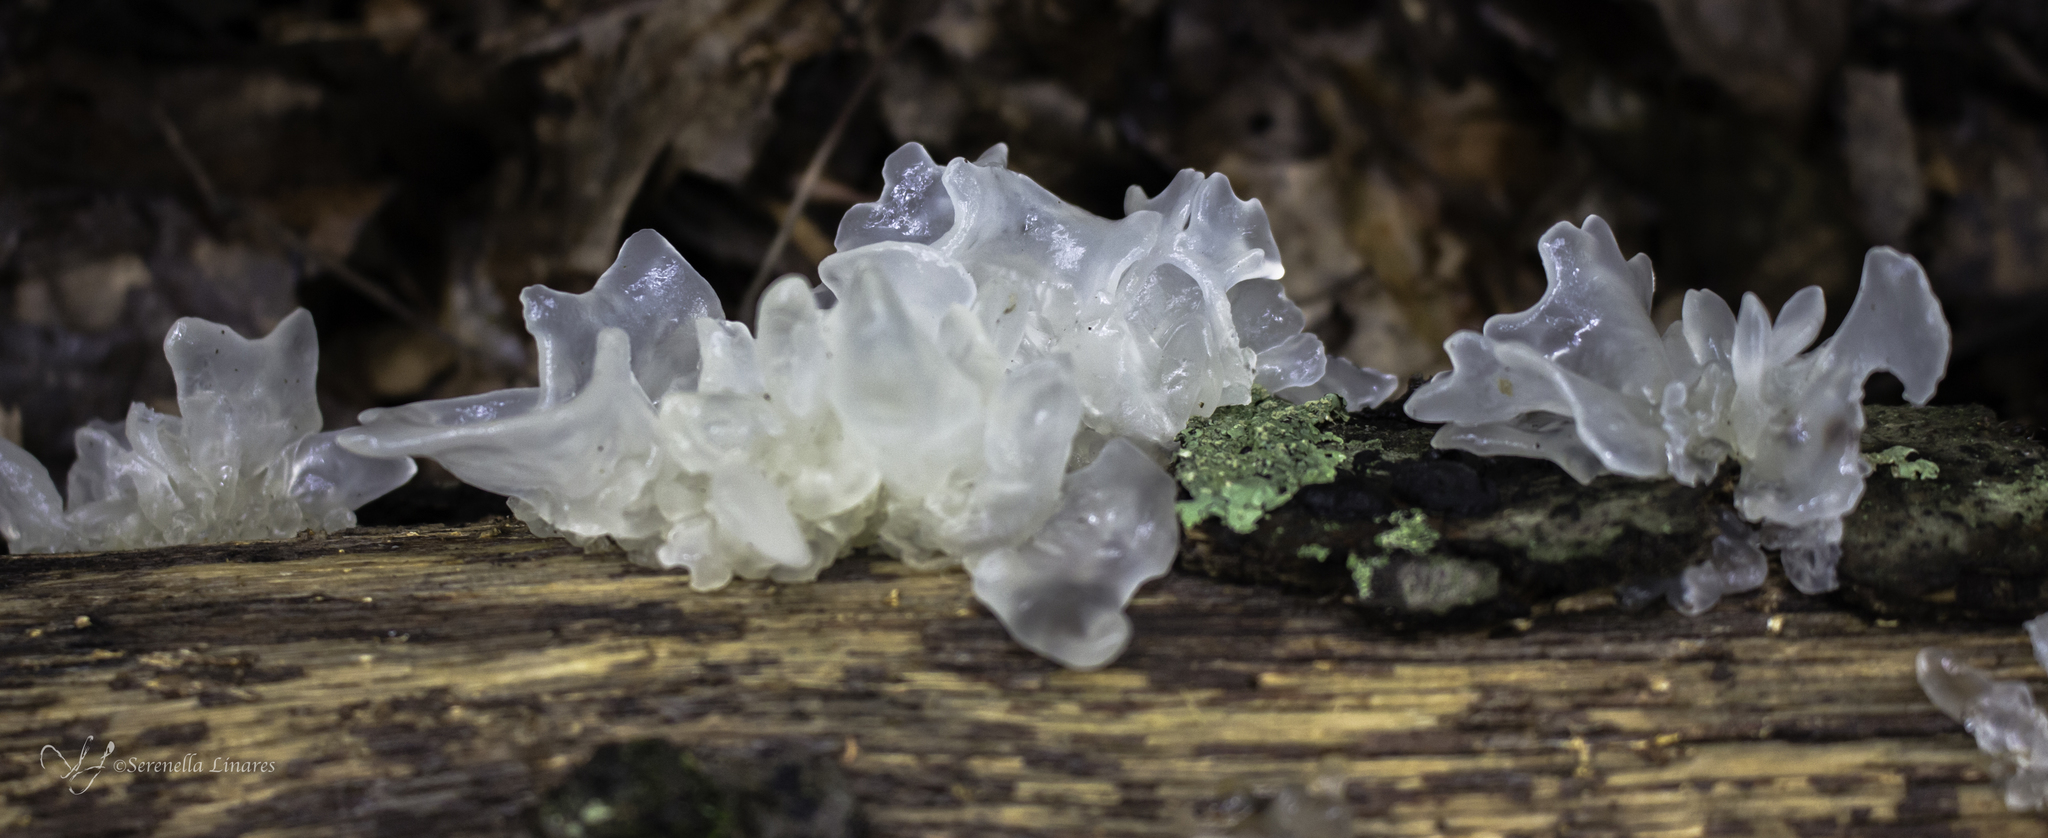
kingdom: Fungi
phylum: Basidiomycota
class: Tremellomycetes
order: Tremellales
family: Tremellaceae
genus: Tremella
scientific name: Tremella fuciformis
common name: Snow fungus
